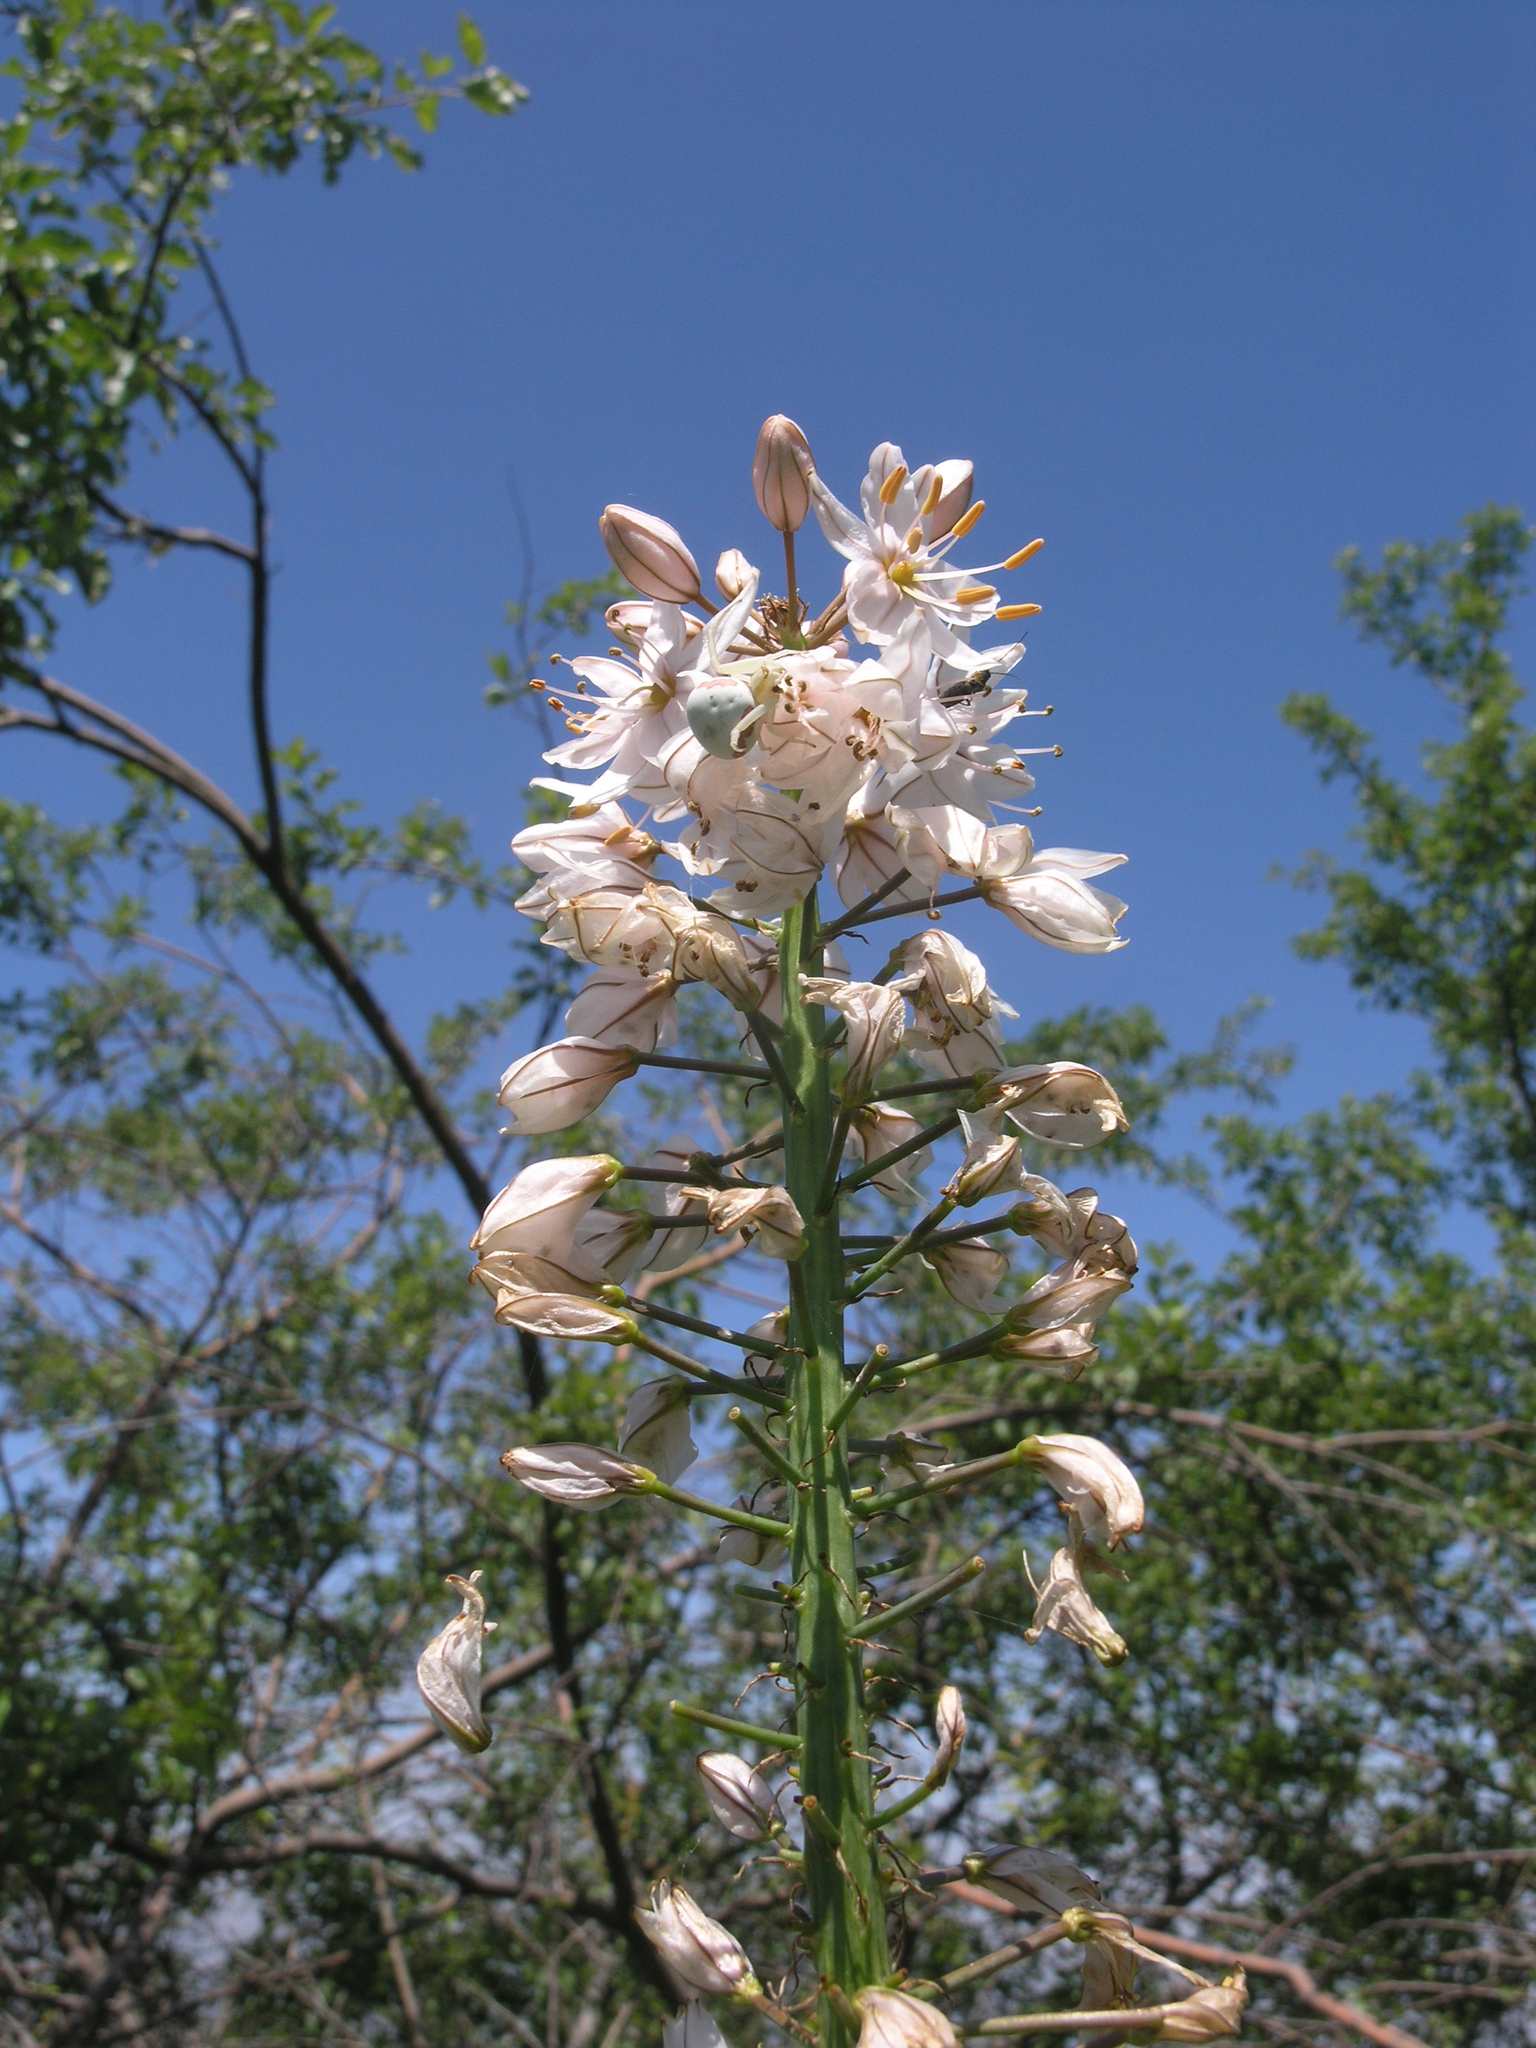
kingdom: Plantae
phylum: Tracheophyta
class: Liliopsida
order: Asparagales
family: Asphodelaceae
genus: Eremurus
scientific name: Eremurus robustus
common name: Foxtail lily
